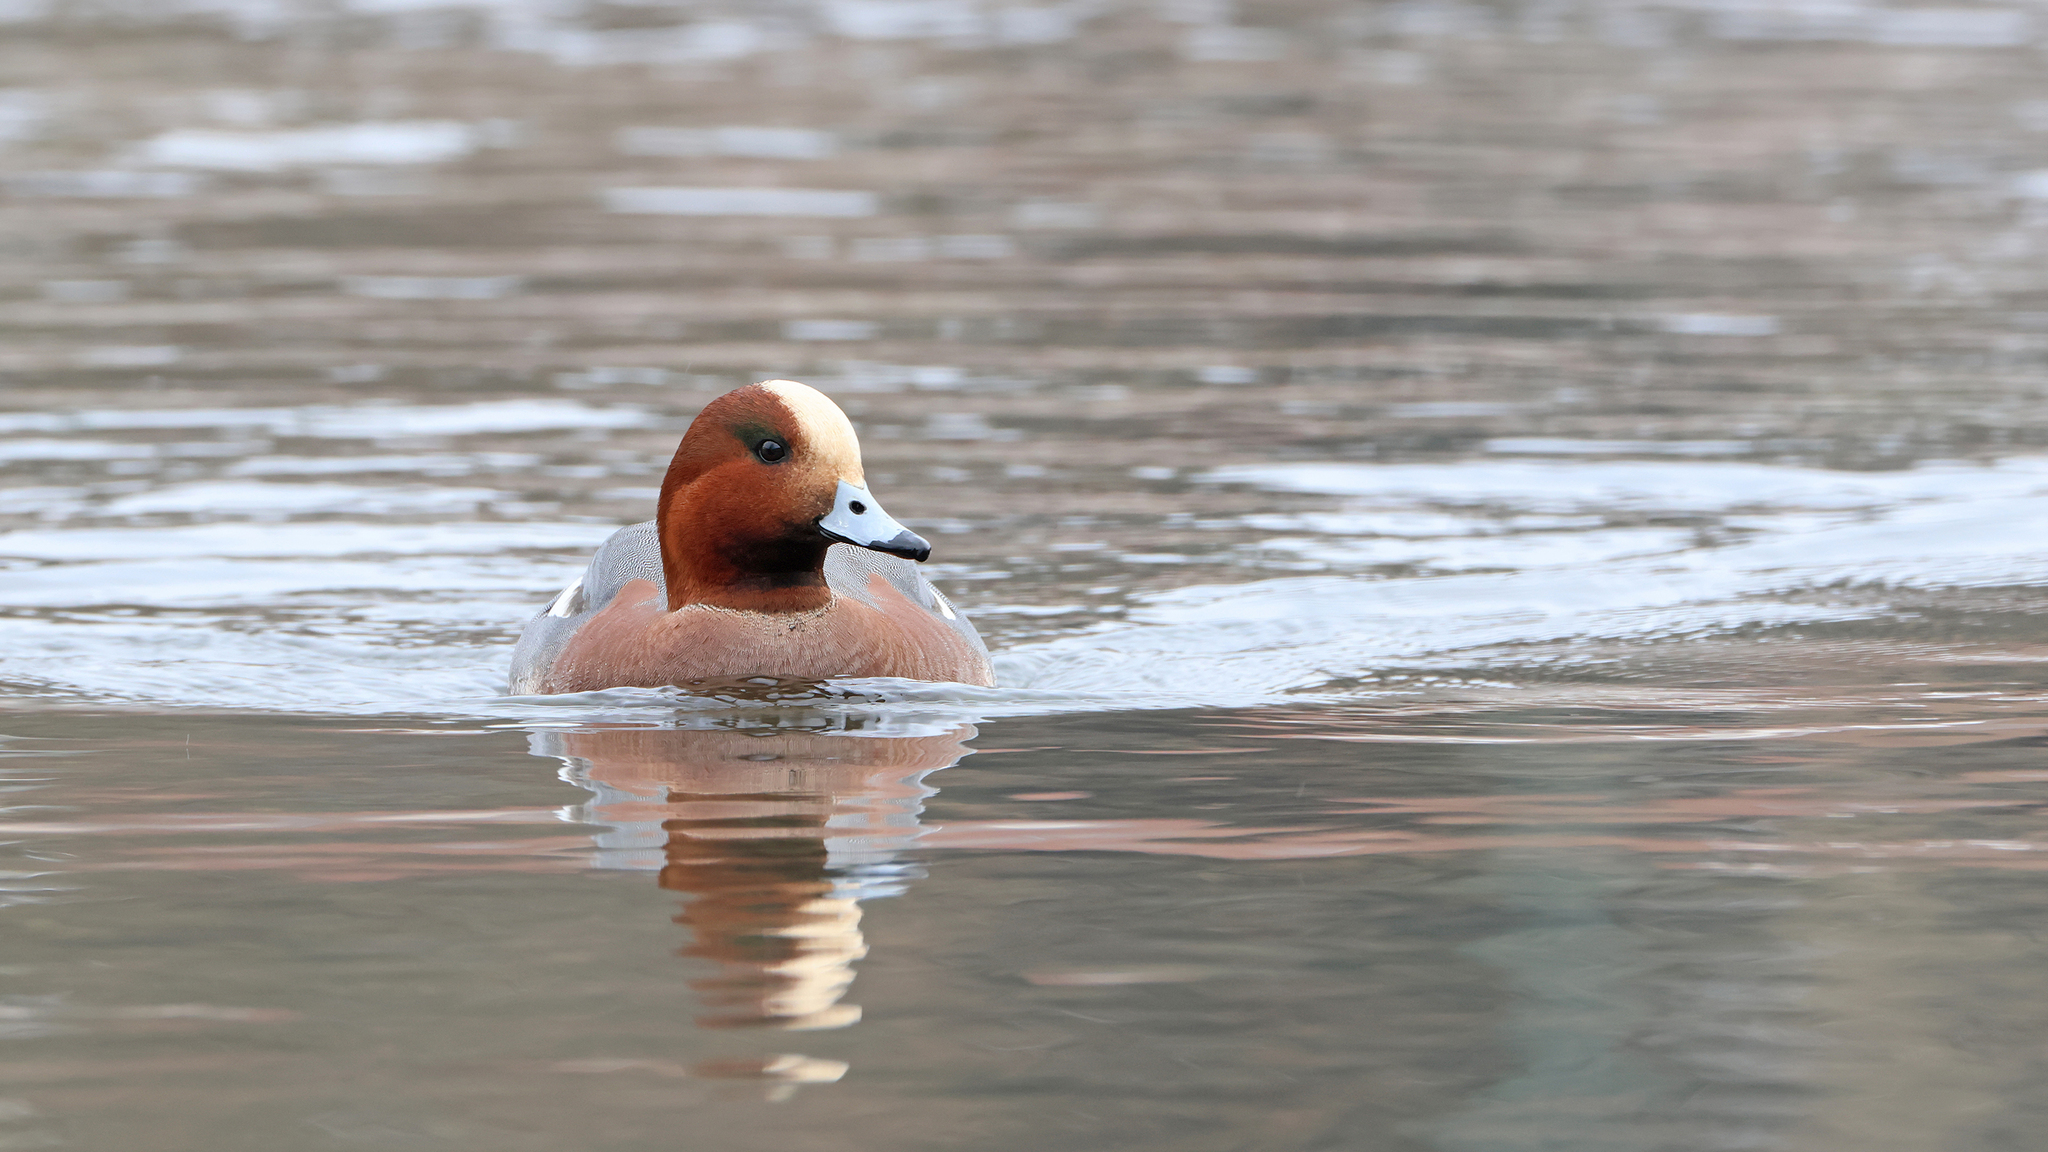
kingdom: Animalia
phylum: Chordata
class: Aves
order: Anseriformes
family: Anatidae
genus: Mareca
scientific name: Mareca penelope
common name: Eurasian wigeon
